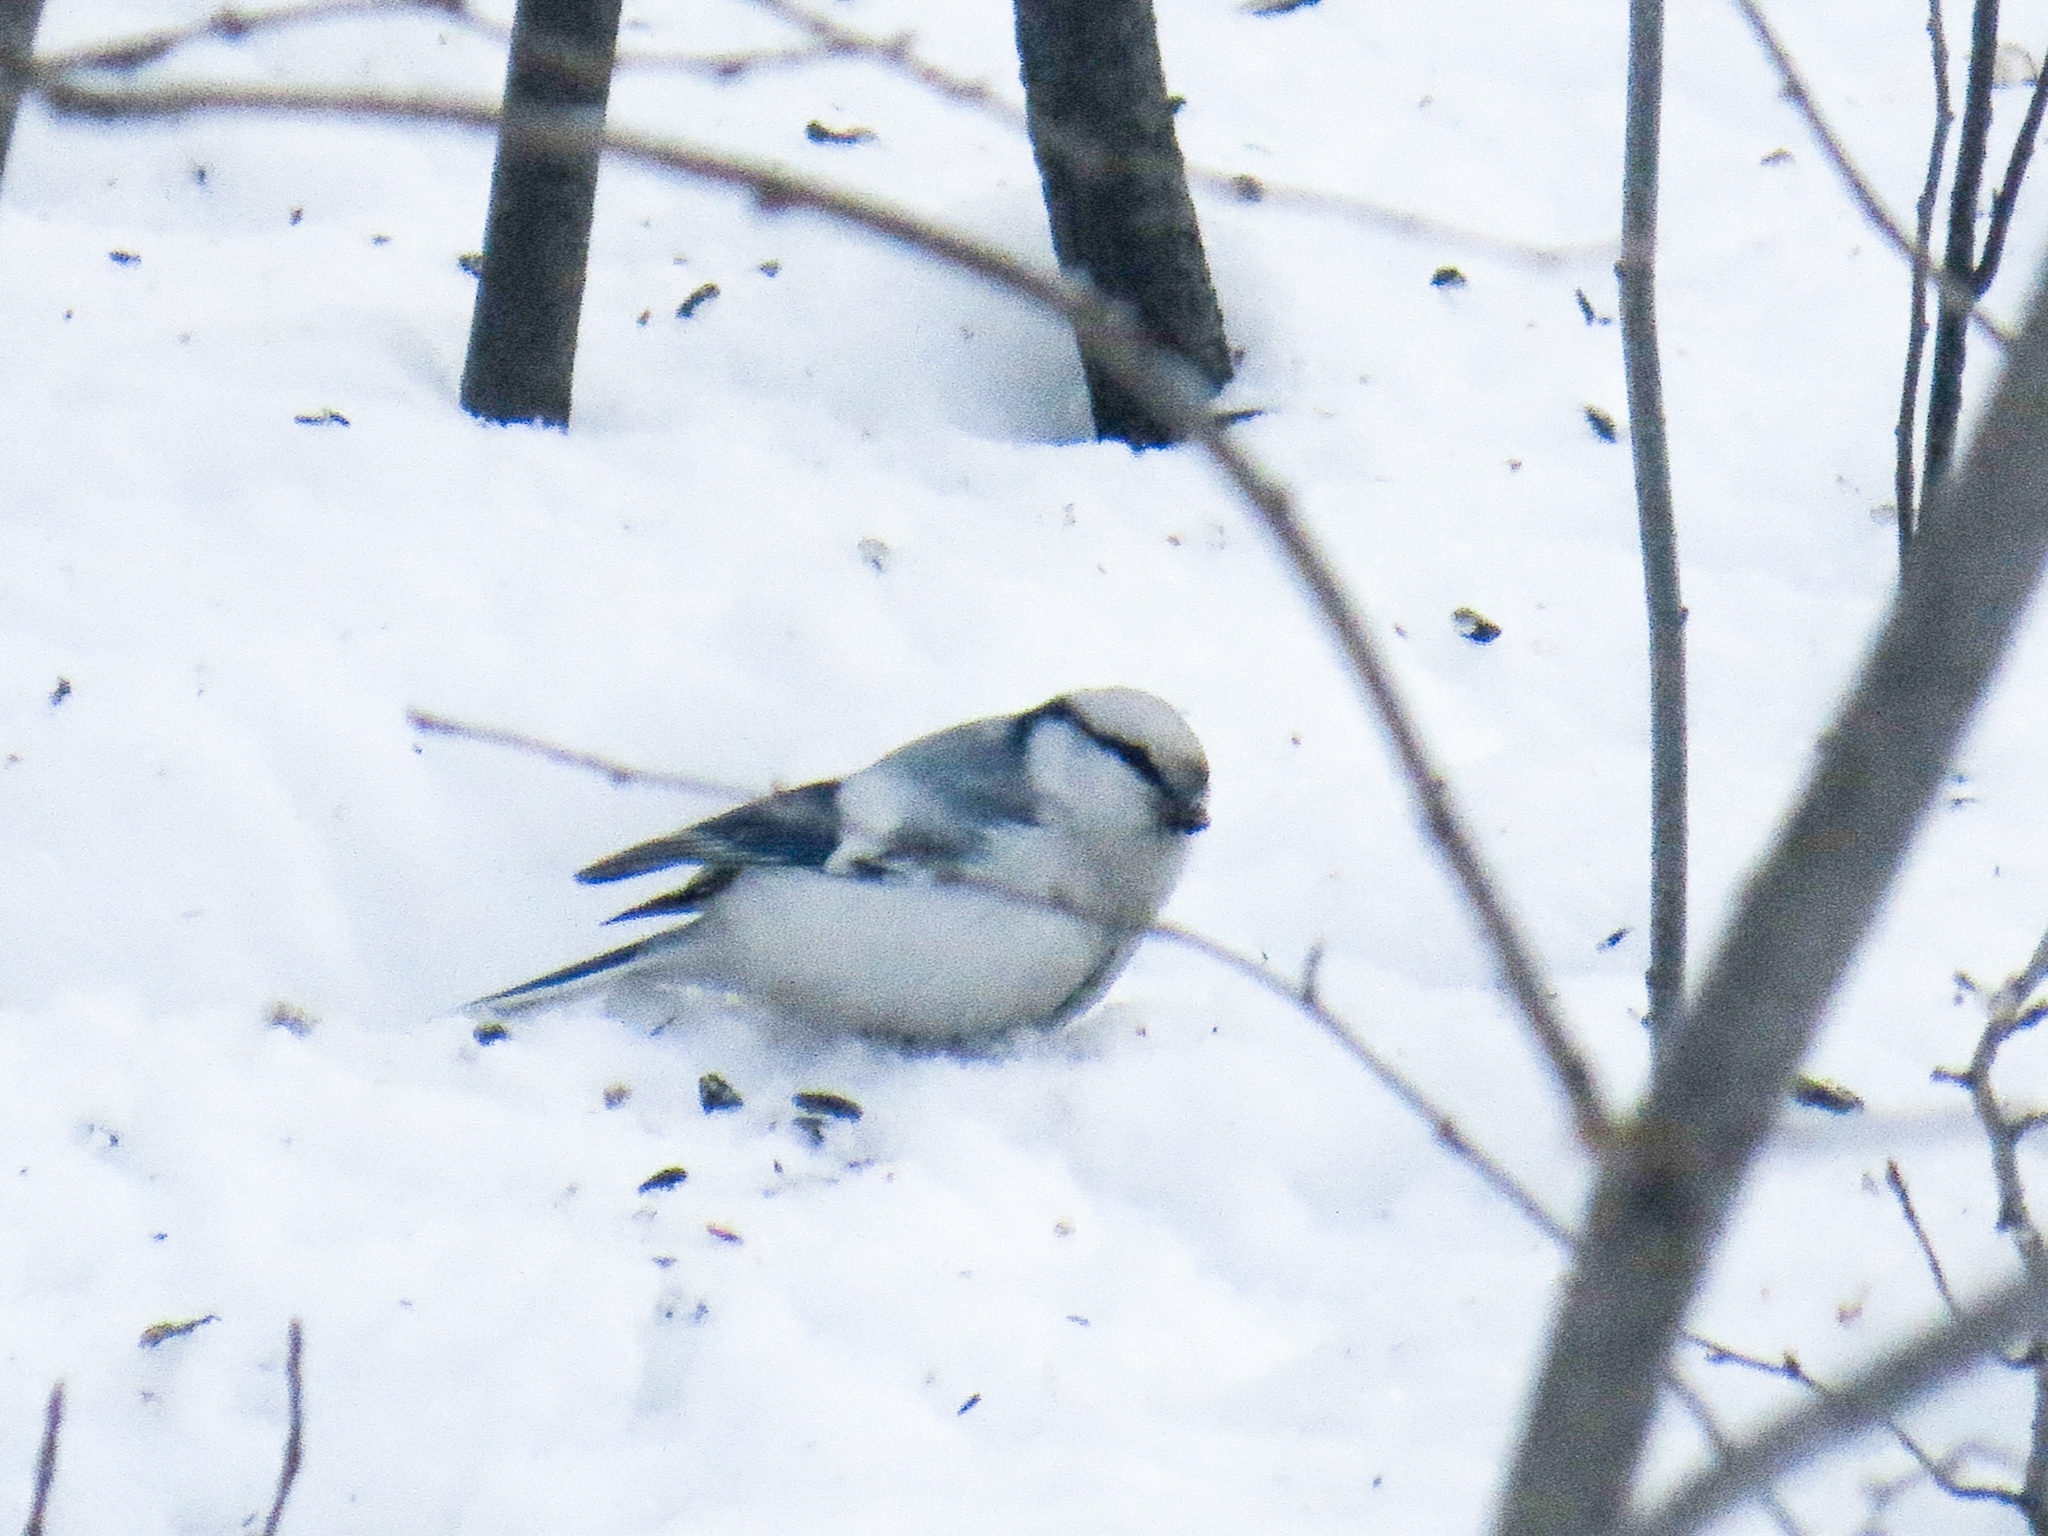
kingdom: Animalia
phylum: Chordata
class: Aves
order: Passeriformes
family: Paridae
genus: Cyanistes
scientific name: Cyanistes cyanus
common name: Azure tit
